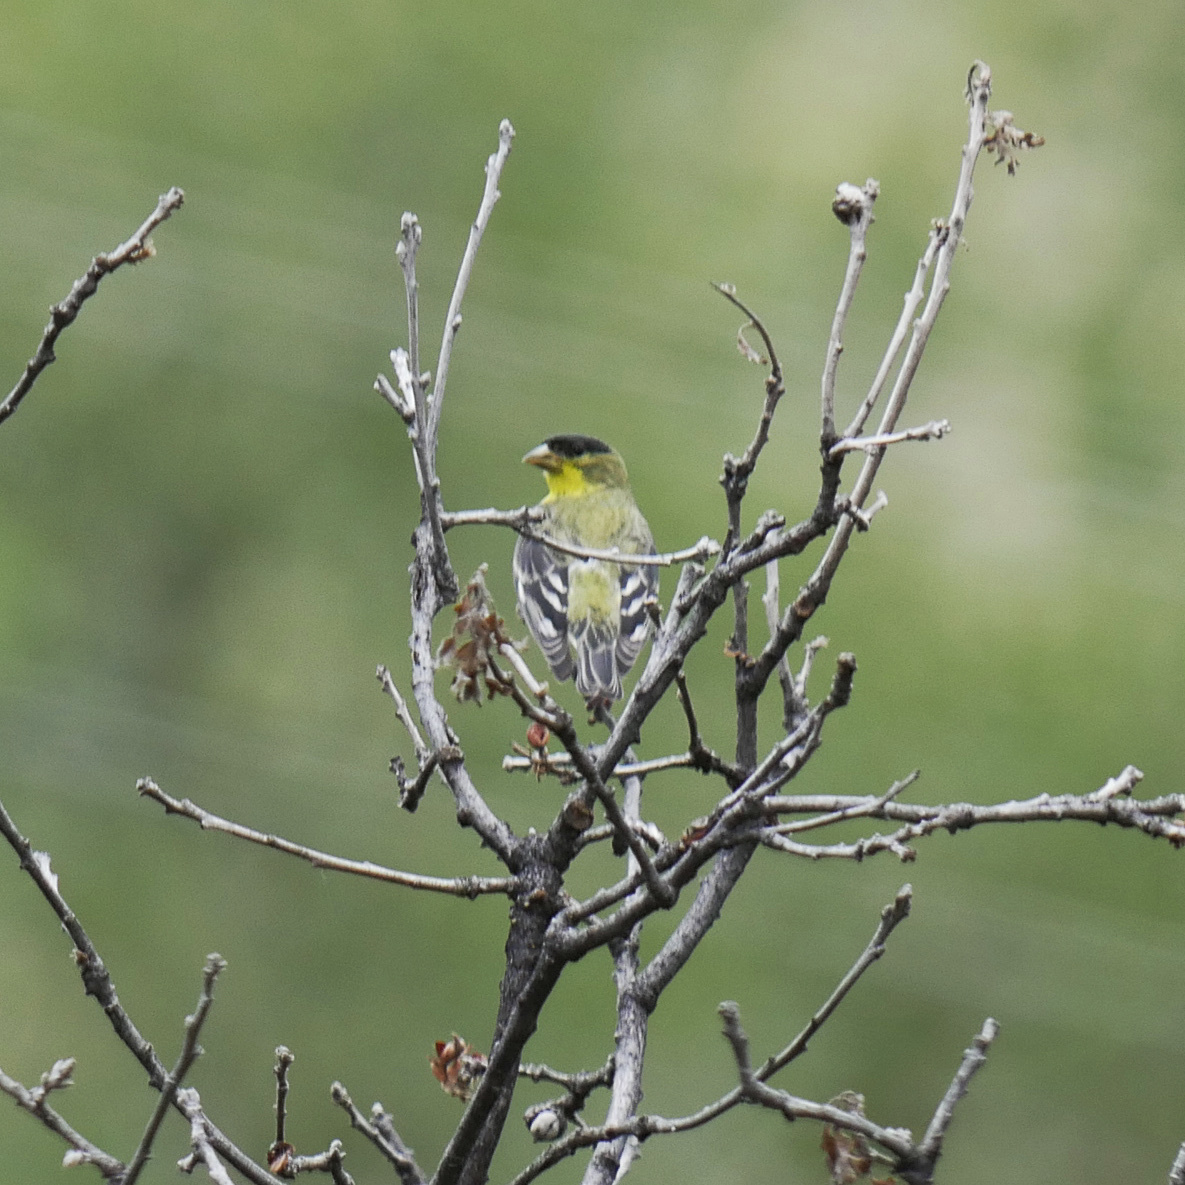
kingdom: Animalia
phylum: Chordata
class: Aves
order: Passeriformes
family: Fringillidae
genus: Spinus
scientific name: Spinus psaltria
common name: Lesser goldfinch
